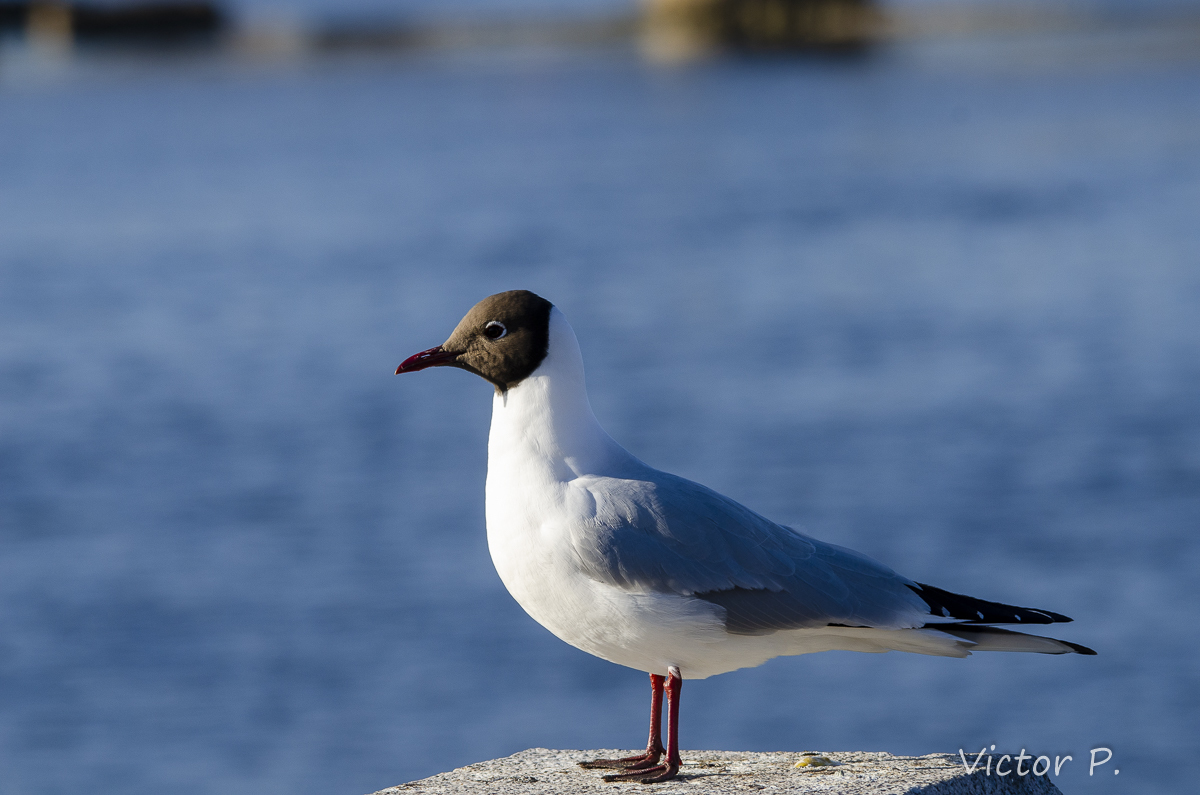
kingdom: Animalia
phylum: Chordata
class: Aves
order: Charadriiformes
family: Laridae
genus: Chroicocephalus
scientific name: Chroicocephalus ridibundus
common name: Black-headed gull
